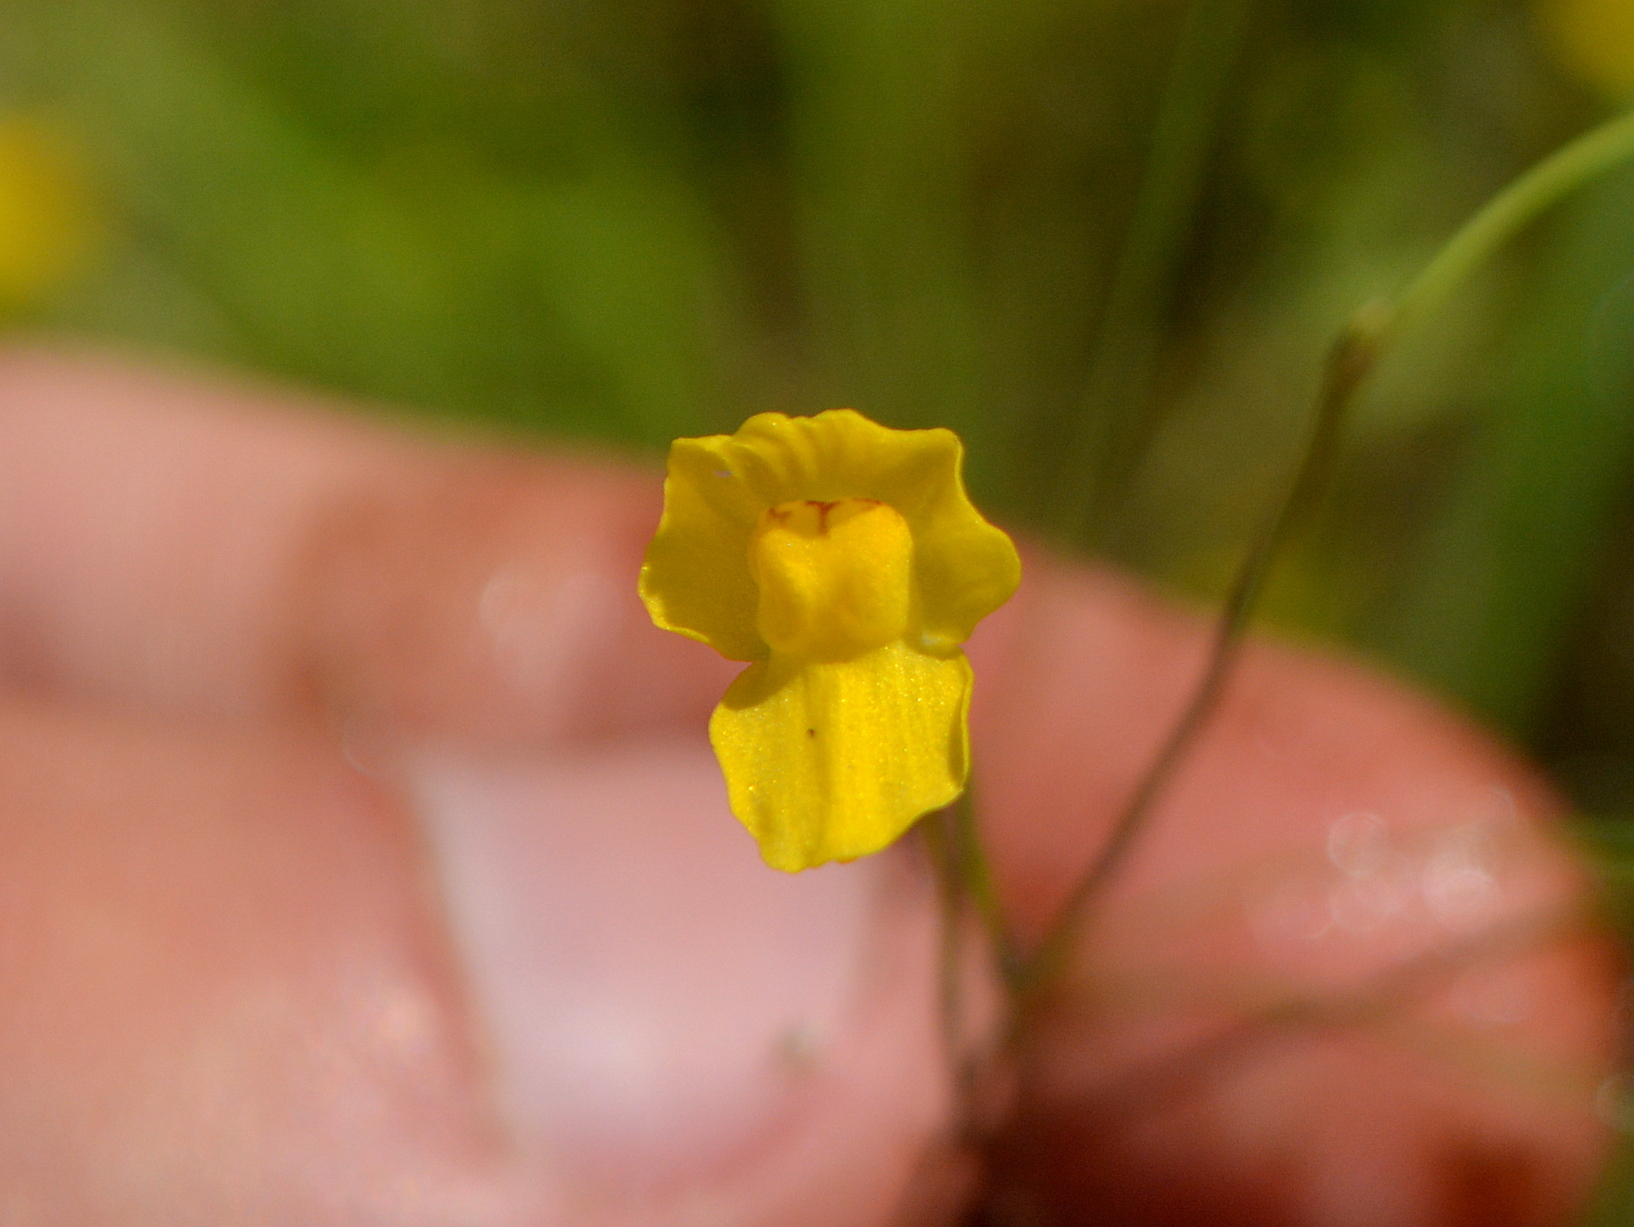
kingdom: Plantae
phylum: Tracheophyta
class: Magnoliopsida
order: Lamiales
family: Lentibulariaceae
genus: Utricularia
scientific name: Utricularia gibba
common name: Humped bladderwort
